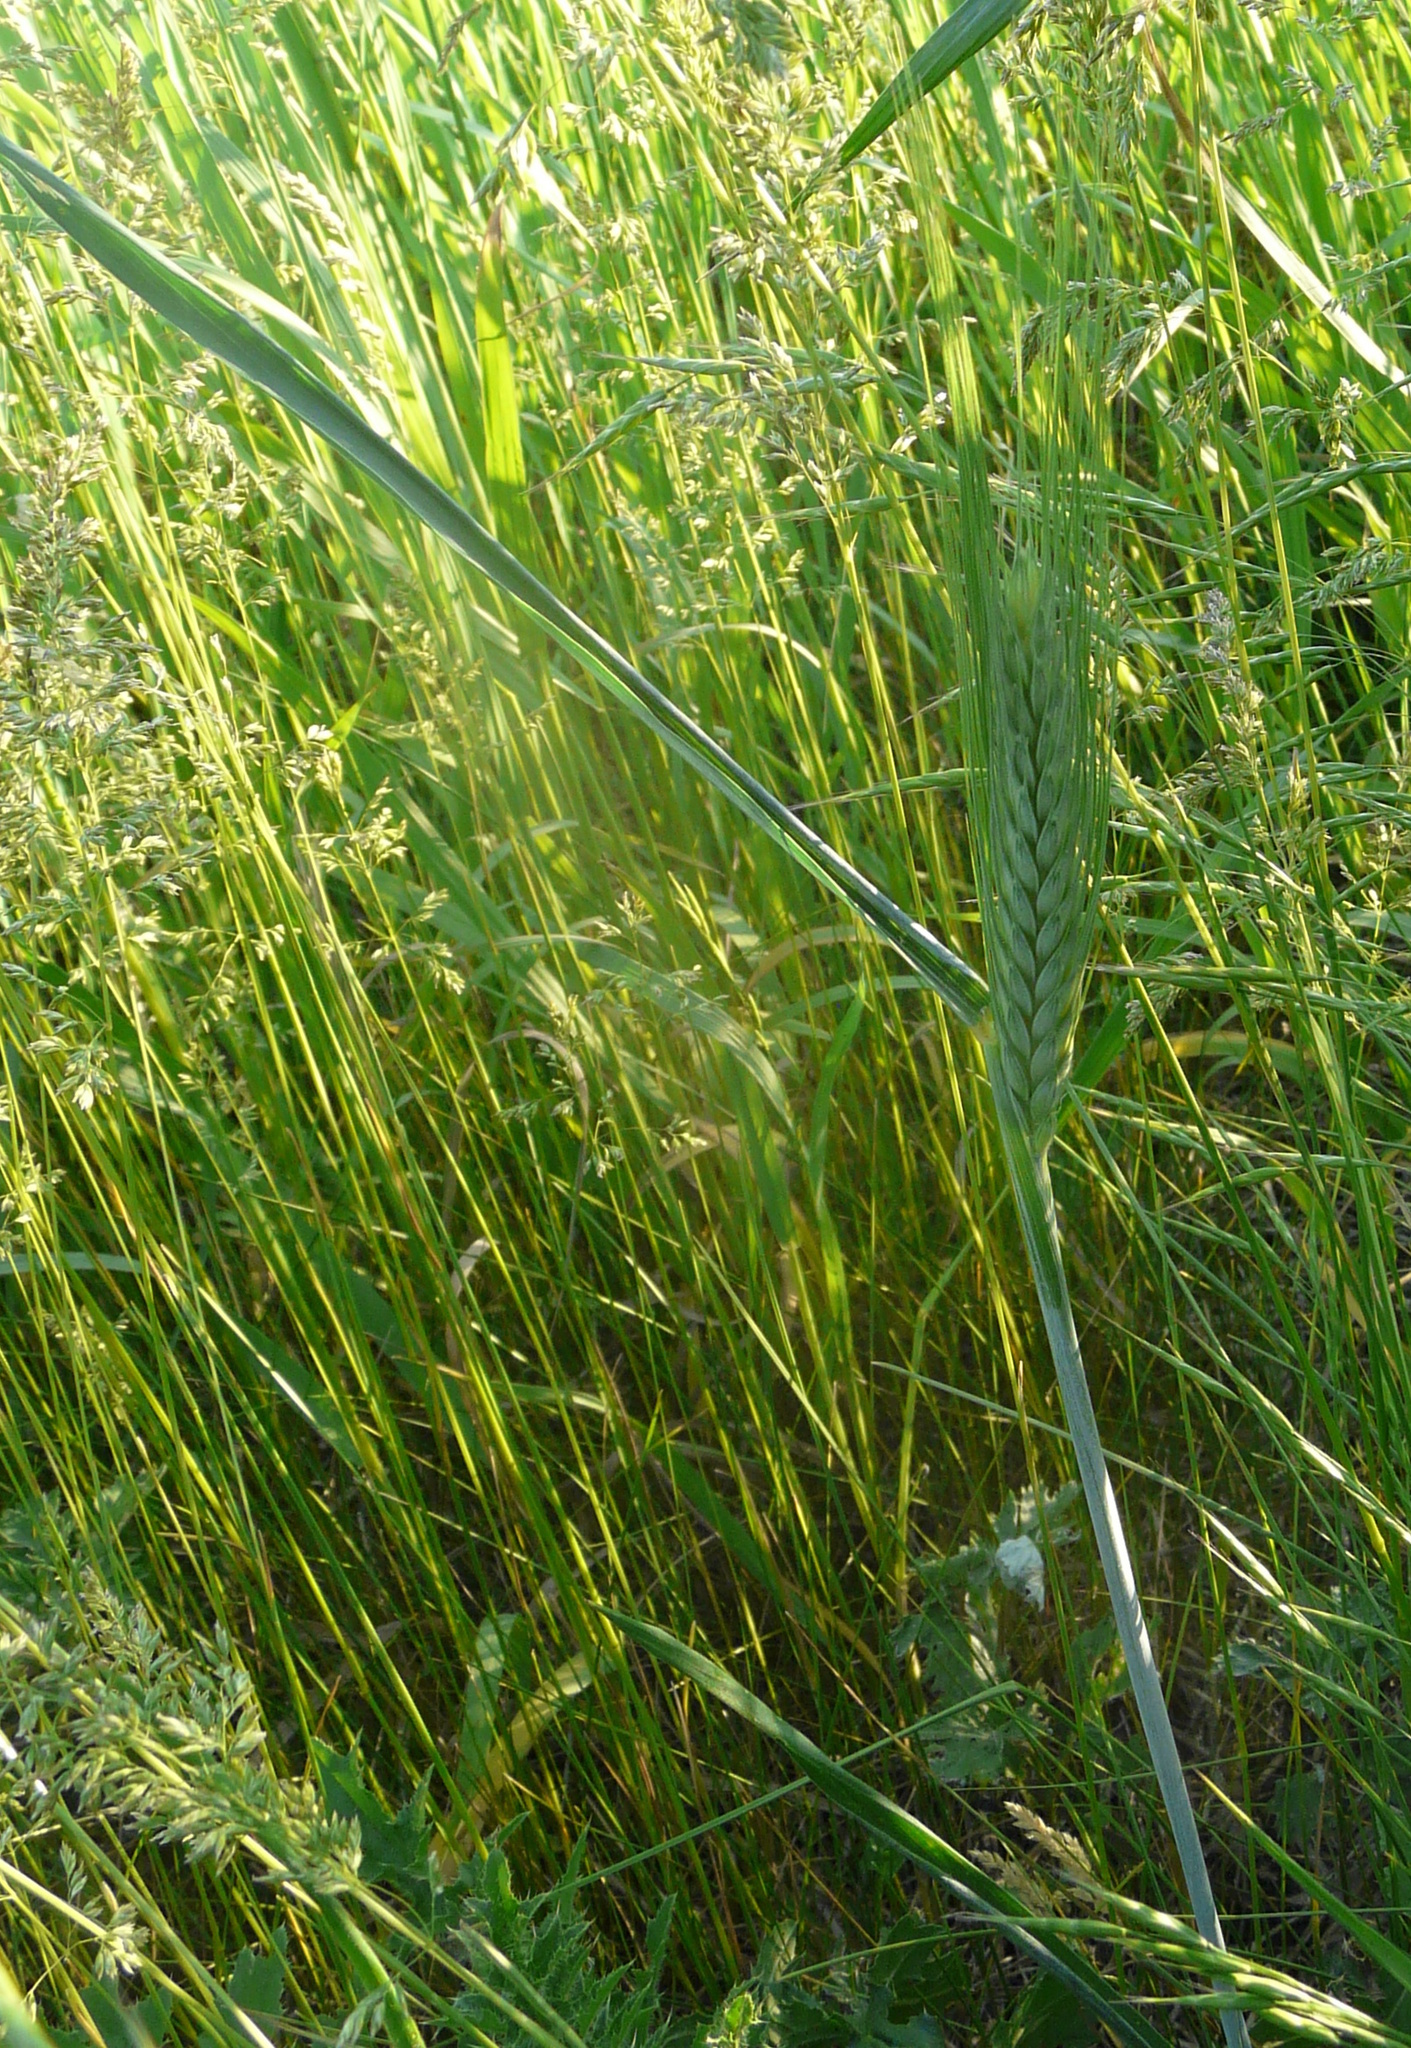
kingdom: Plantae
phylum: Tracheophyta
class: Liliopsida
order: Poales
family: Poaceae
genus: Triticum
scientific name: Triticum aestivum
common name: Common wheat
